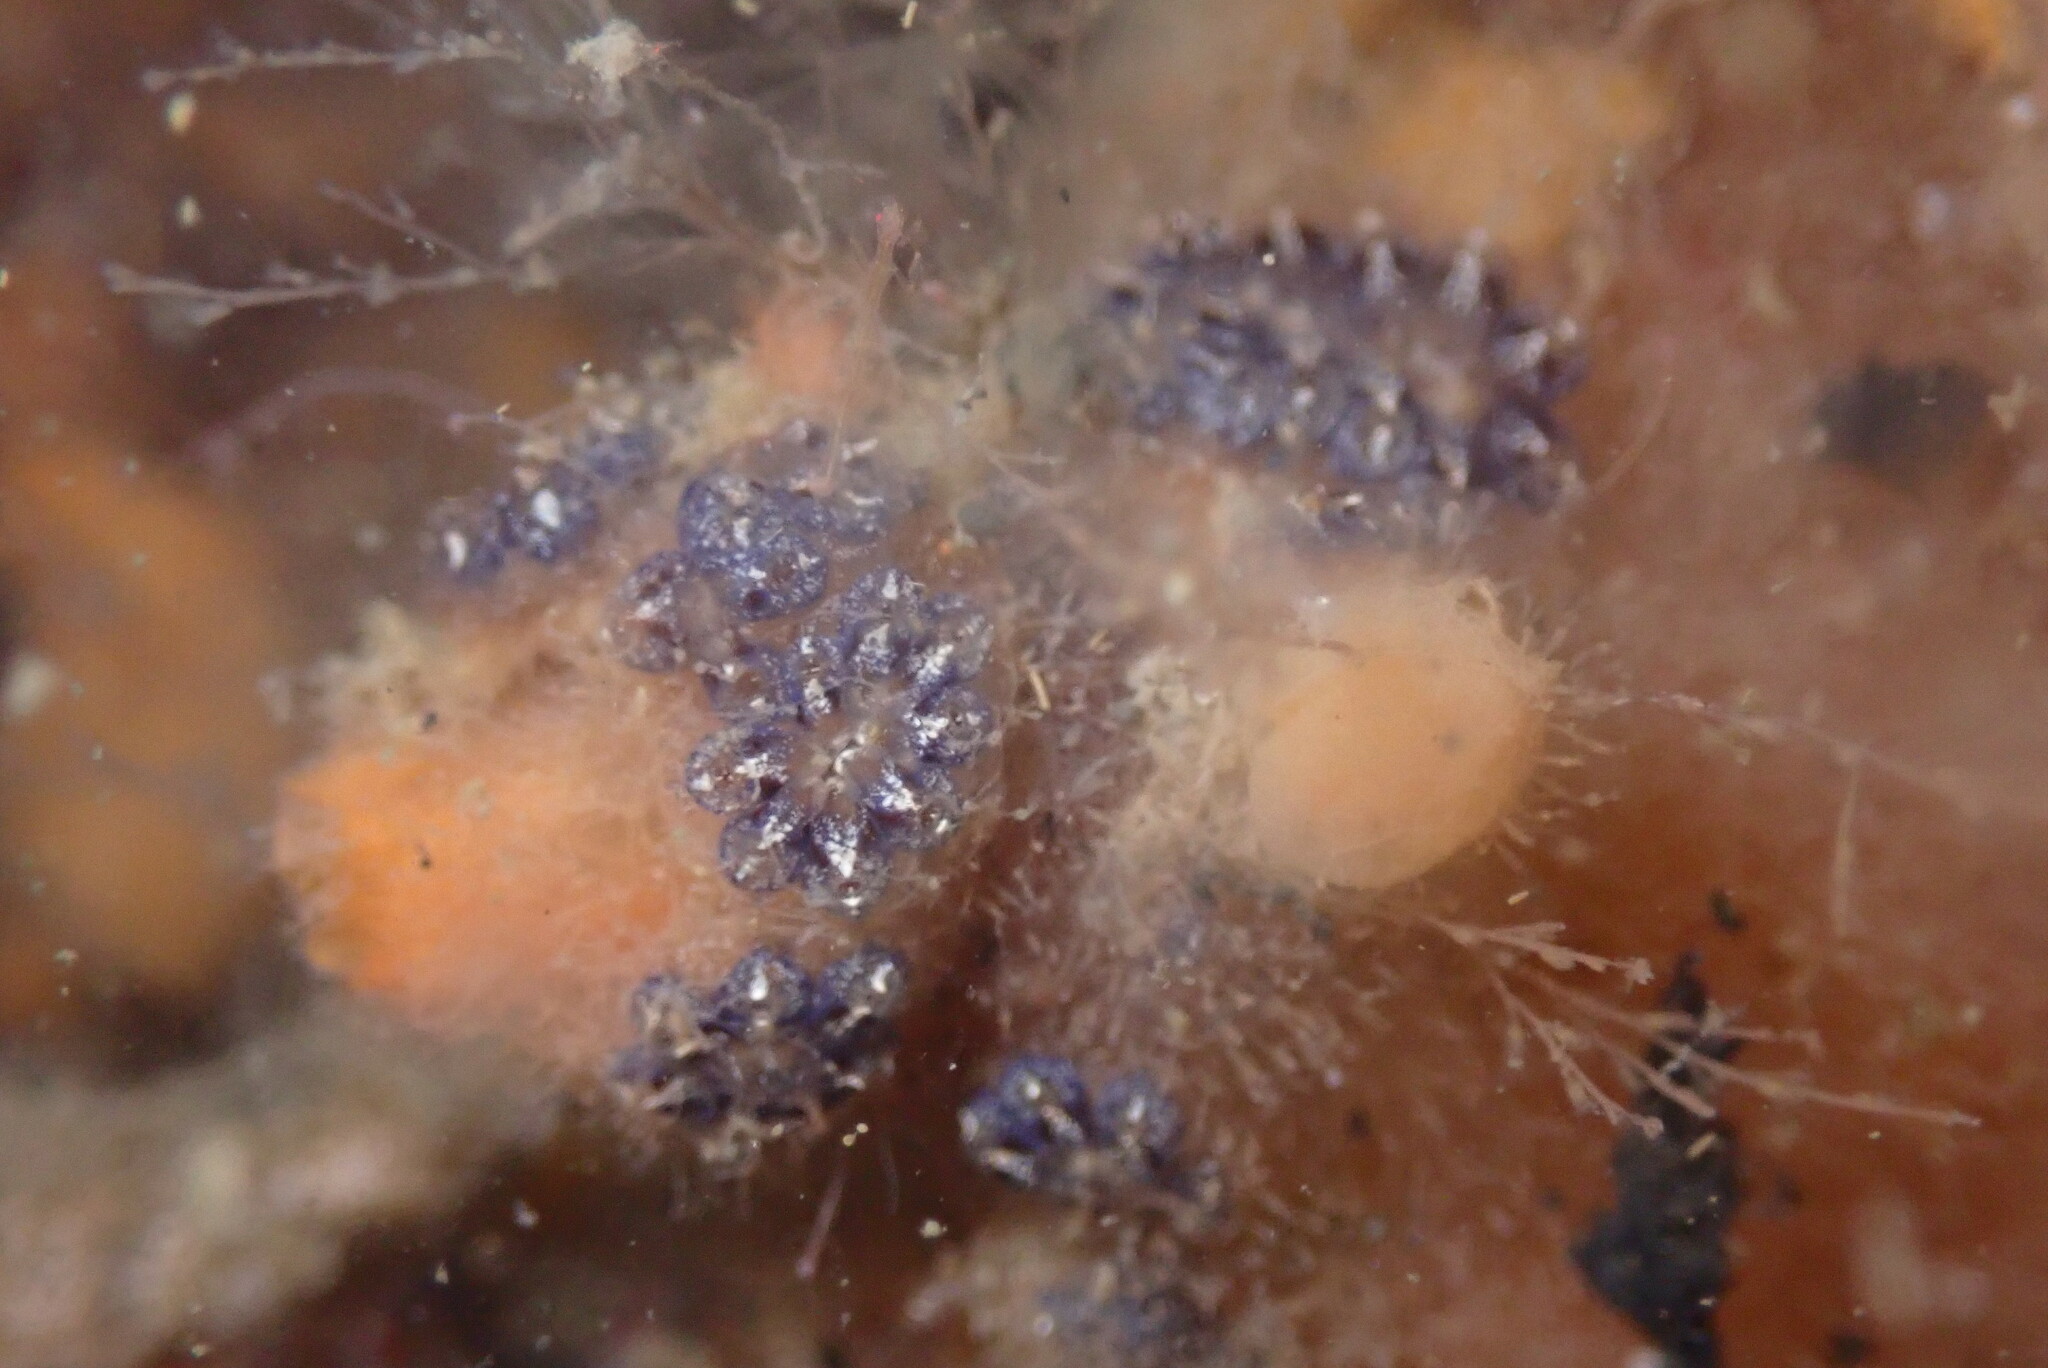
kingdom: Animalia
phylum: Chordata
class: Ascidiacea
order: Stolidobranchia
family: Styelidae
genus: Botryllus
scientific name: Botryllus schlosseri
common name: Golden star tunicate
